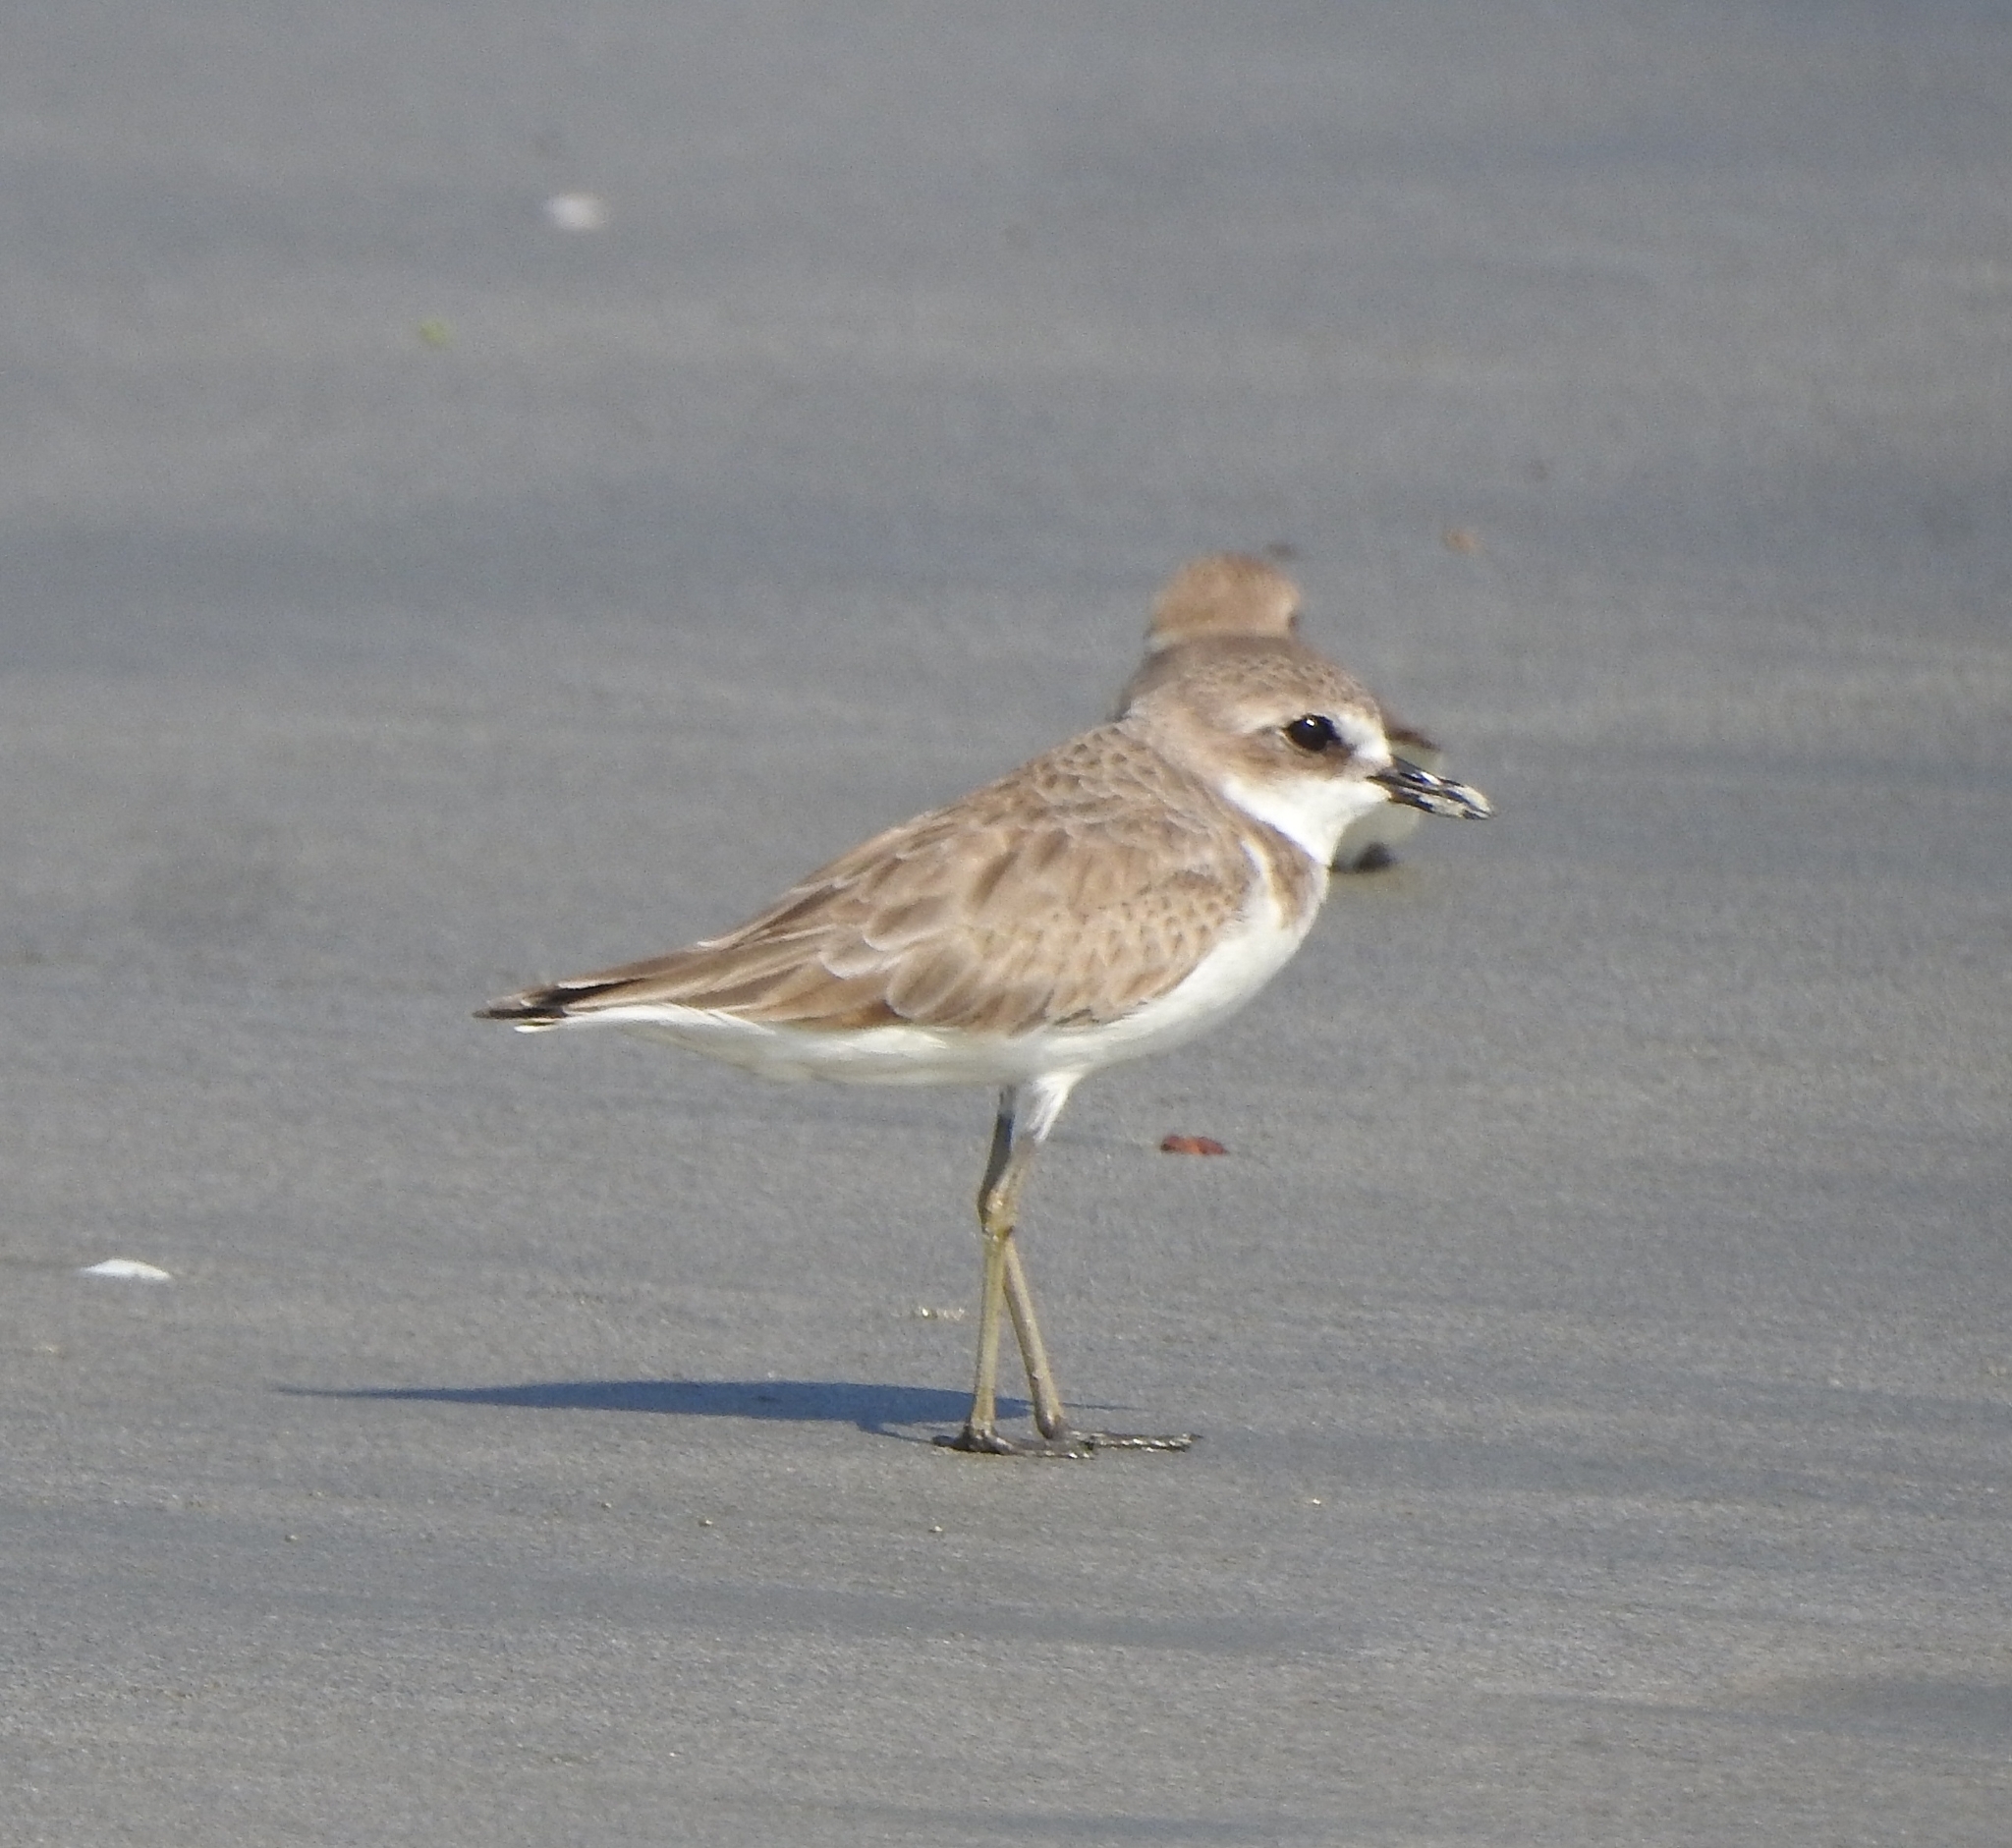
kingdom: Animalia
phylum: Chordata
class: Aves
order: Charadriiformes
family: Charadriidae
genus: Charadrius
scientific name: Charadrius leschenaultii
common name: Greater sand plover
